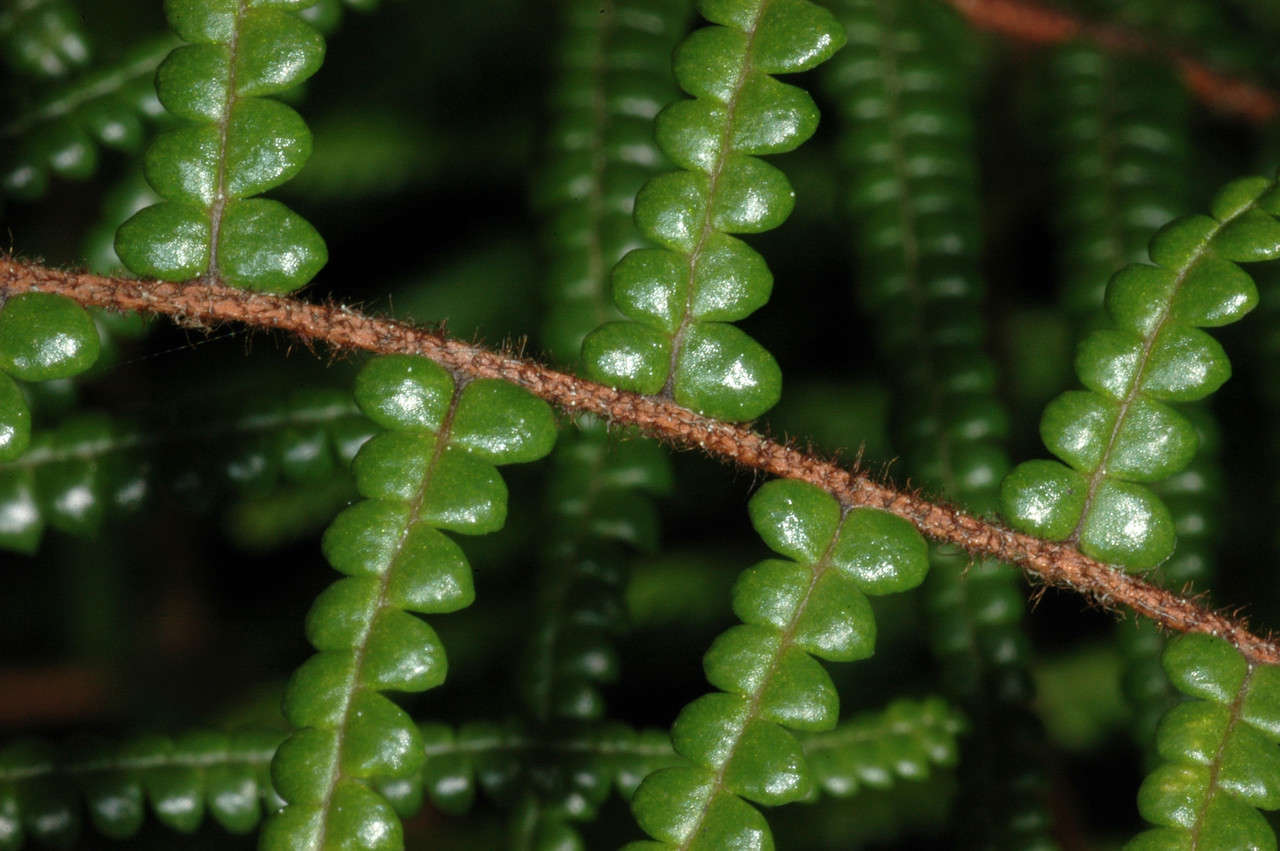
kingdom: Plantae
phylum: Tracheophyta
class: Polypodiopsida
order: Gleicheniales
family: Gleicheniaceae
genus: Gleichenia
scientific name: Gleichenia microphylla
